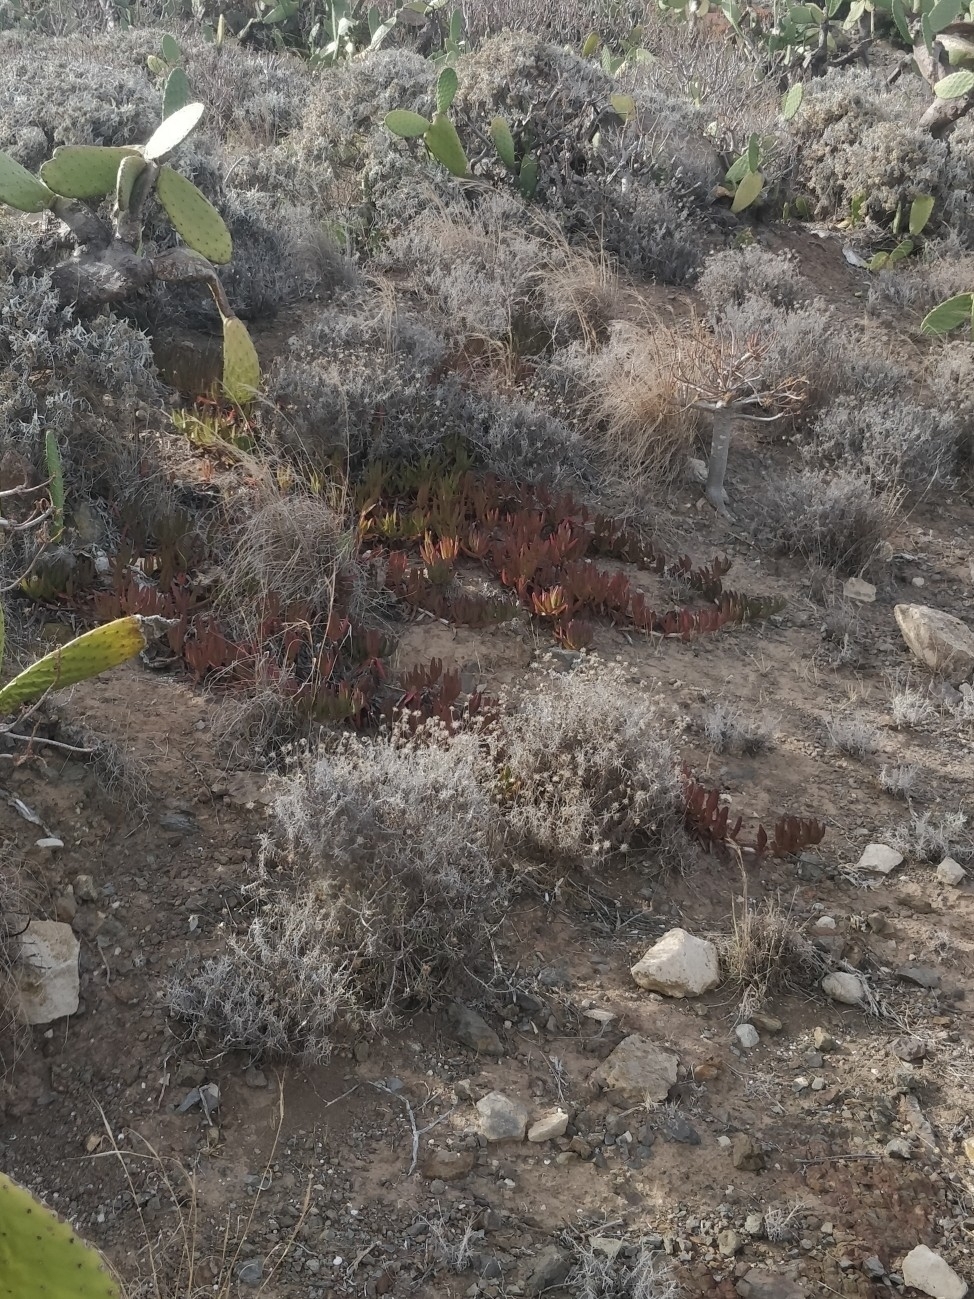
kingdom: Plantae
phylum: Tracheophyta
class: Magnoliopsida
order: Asterales
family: Asteraceae
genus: Phagnalon
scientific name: Phagnalon saxatile
